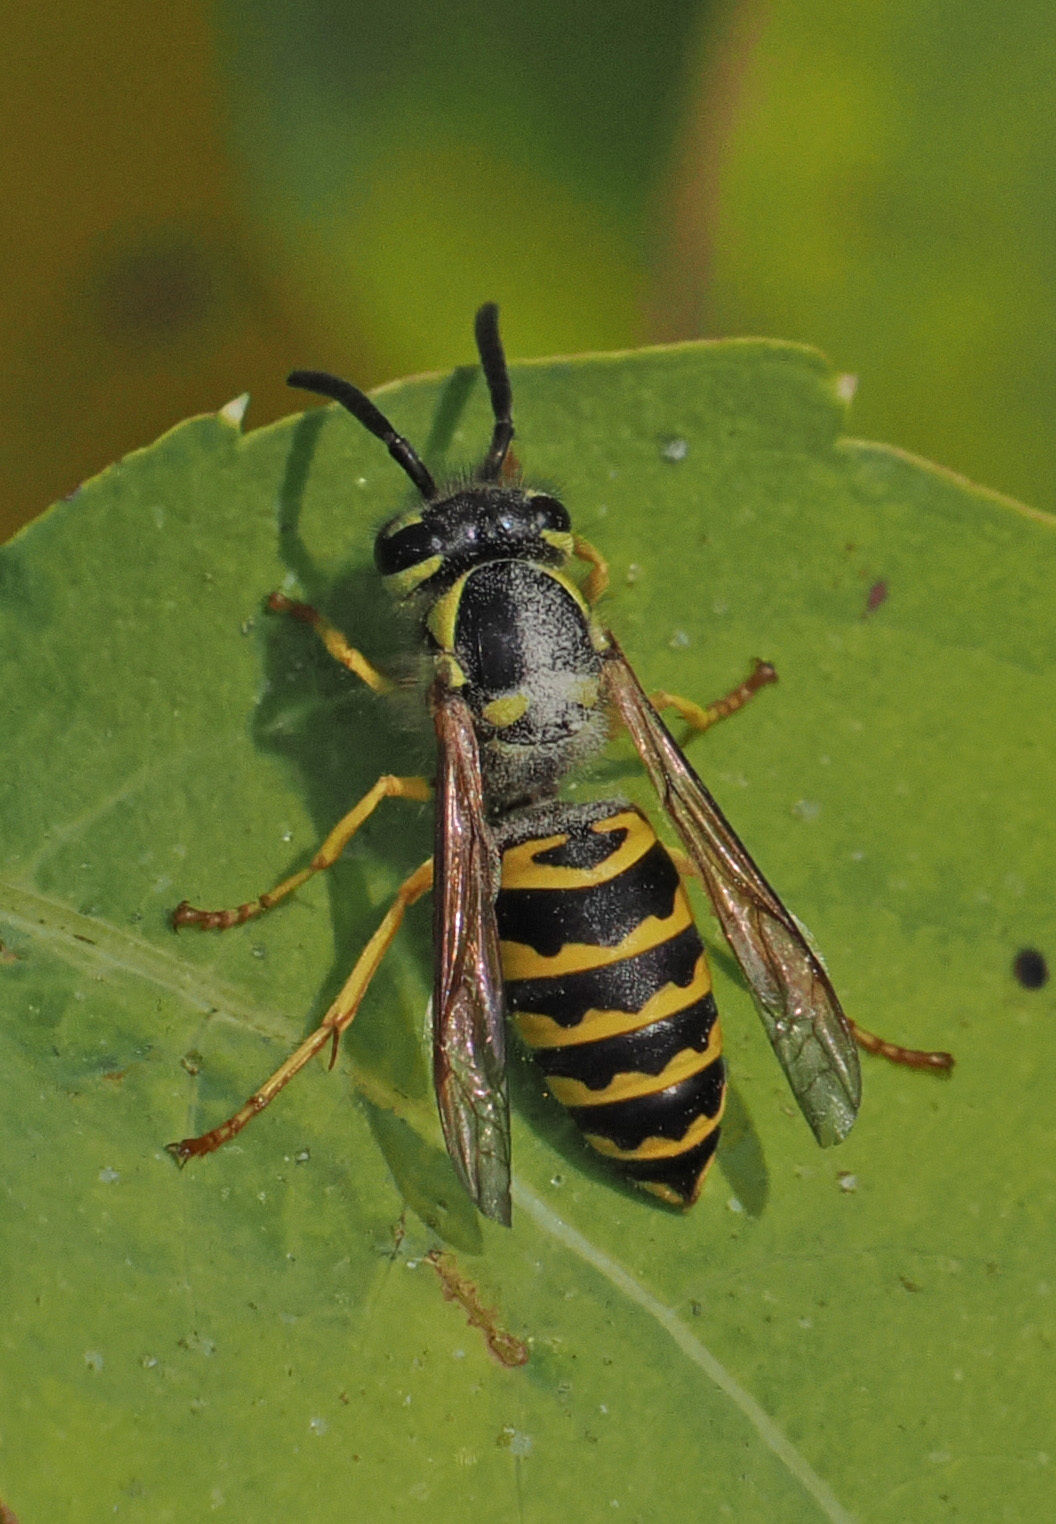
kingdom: Animalia
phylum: Arthropoda
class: Insecta
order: Hymenoptera
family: Vespidae
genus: Vespula
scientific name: Vespula maculifrons
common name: Eastern yellowjacket
